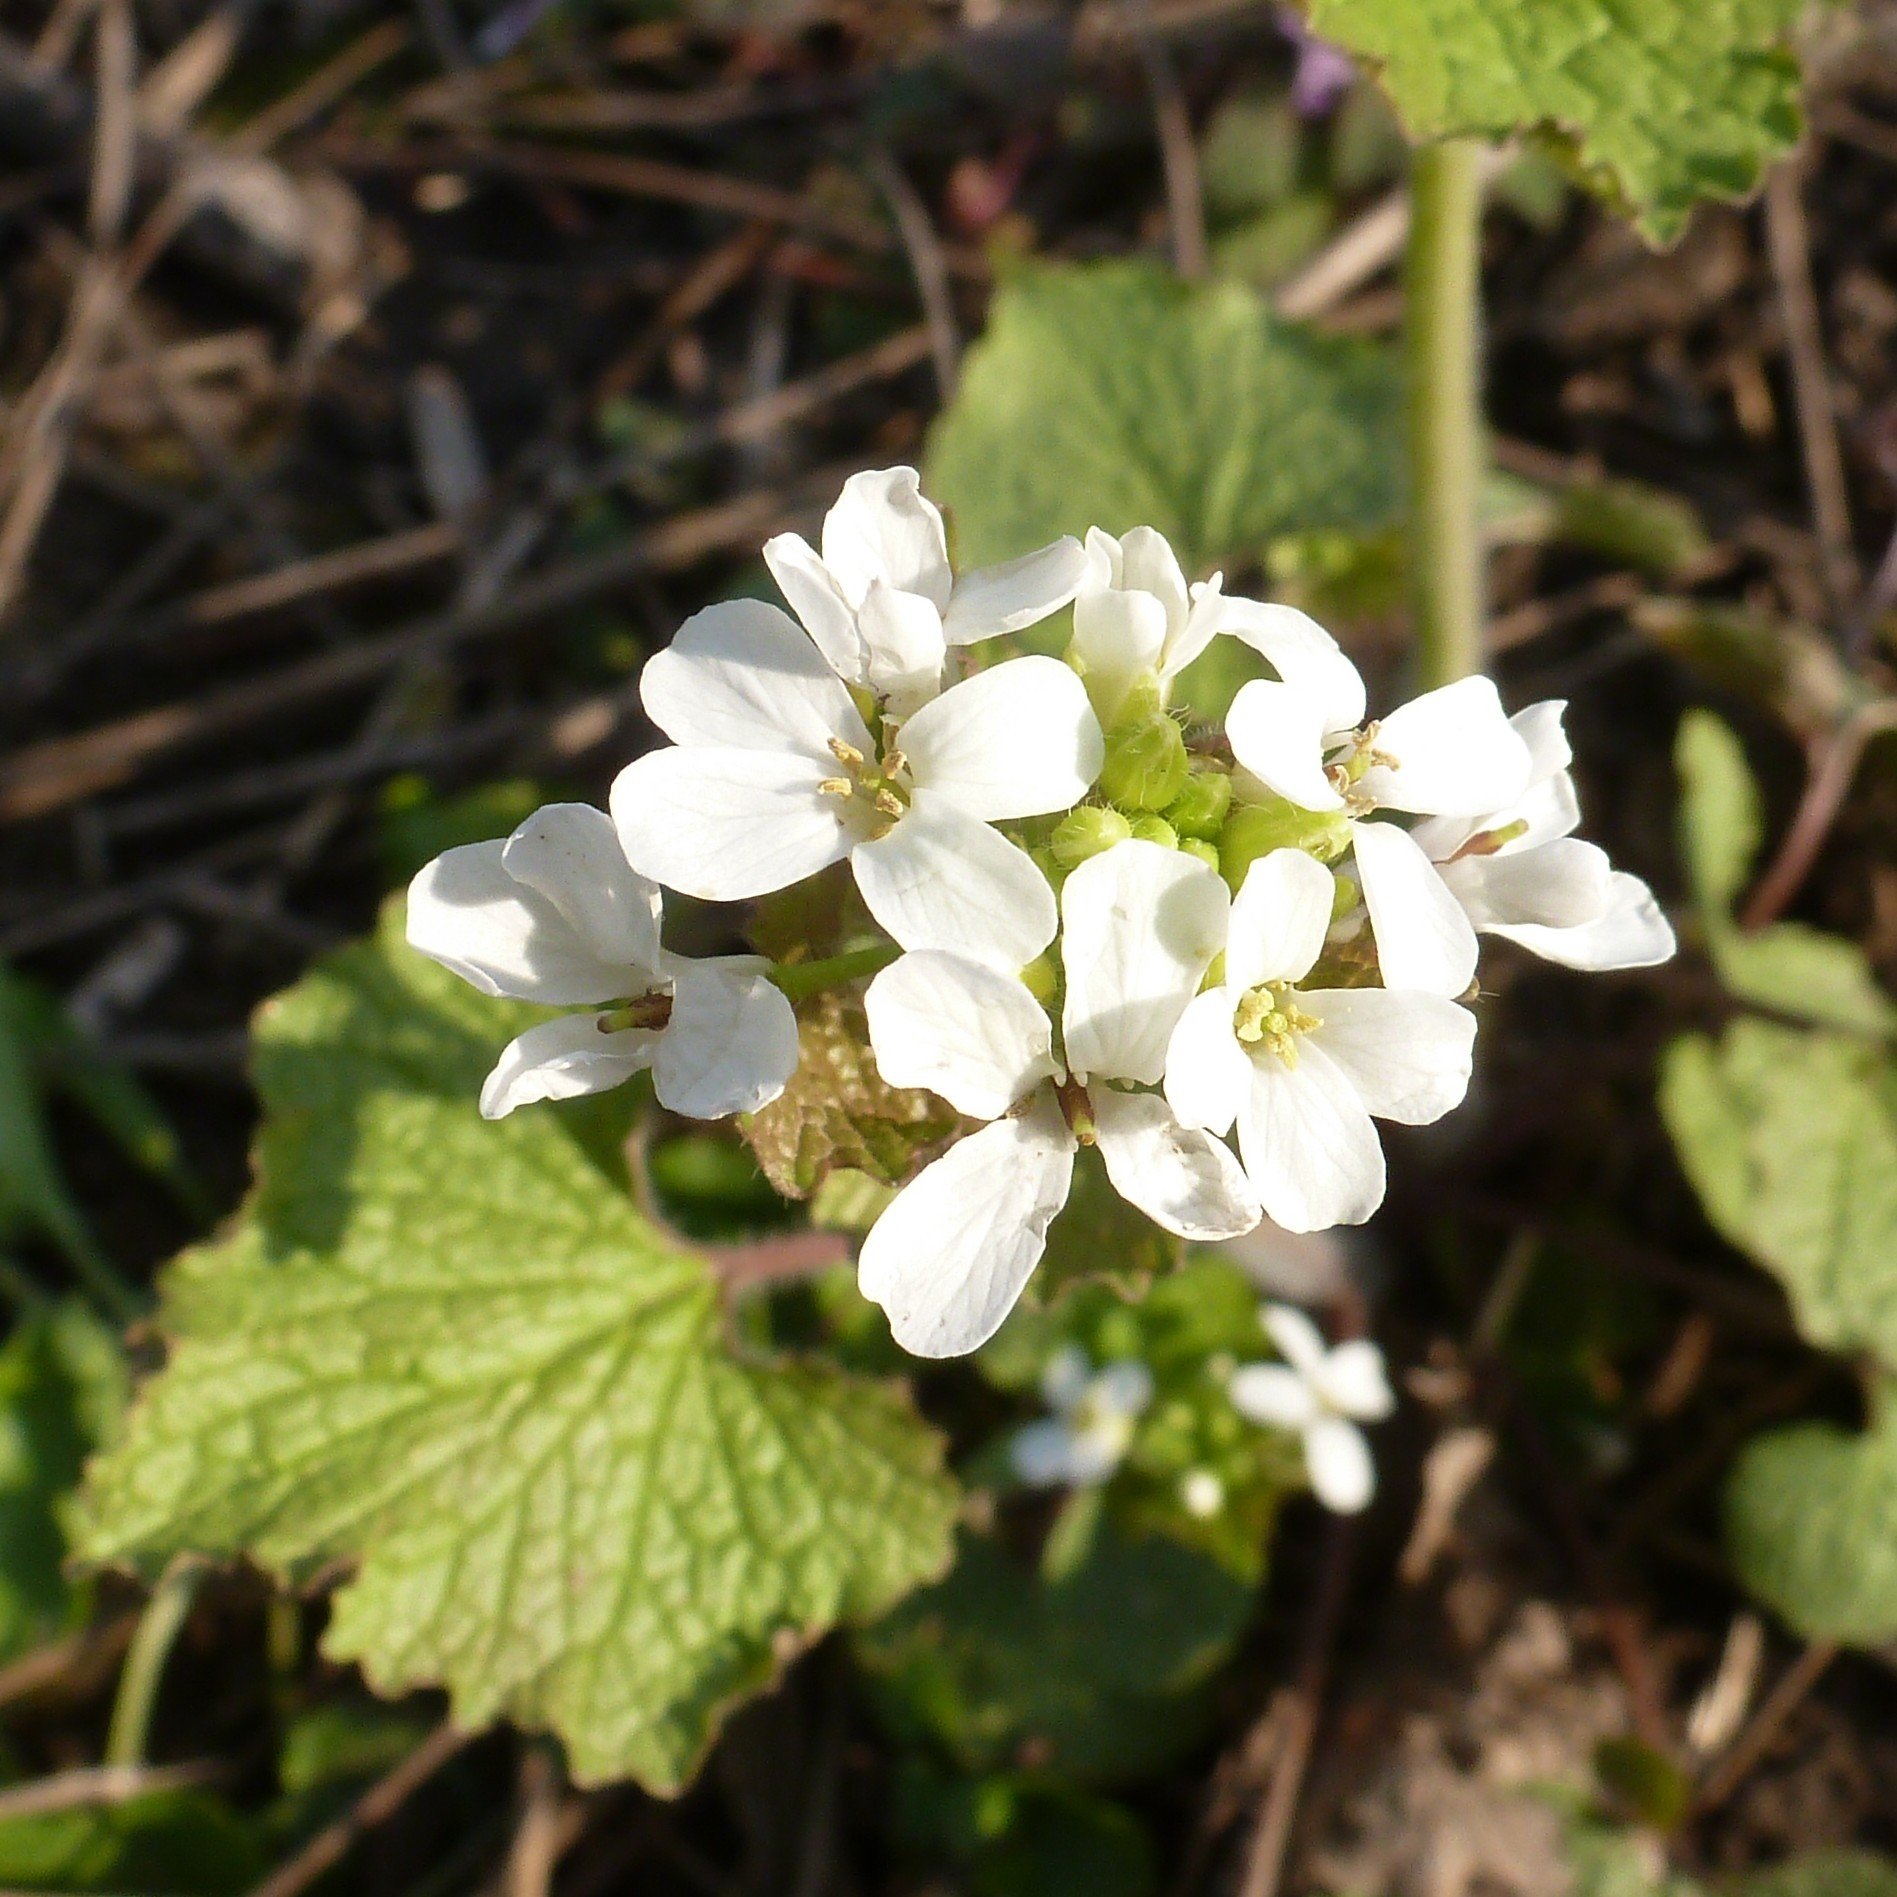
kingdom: Plantae
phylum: Tracheophyta
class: Magnoliopsida
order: Brassicales
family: Brassicaceae
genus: Alliaria
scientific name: Alliaria petiolata
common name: Garlic mustard
